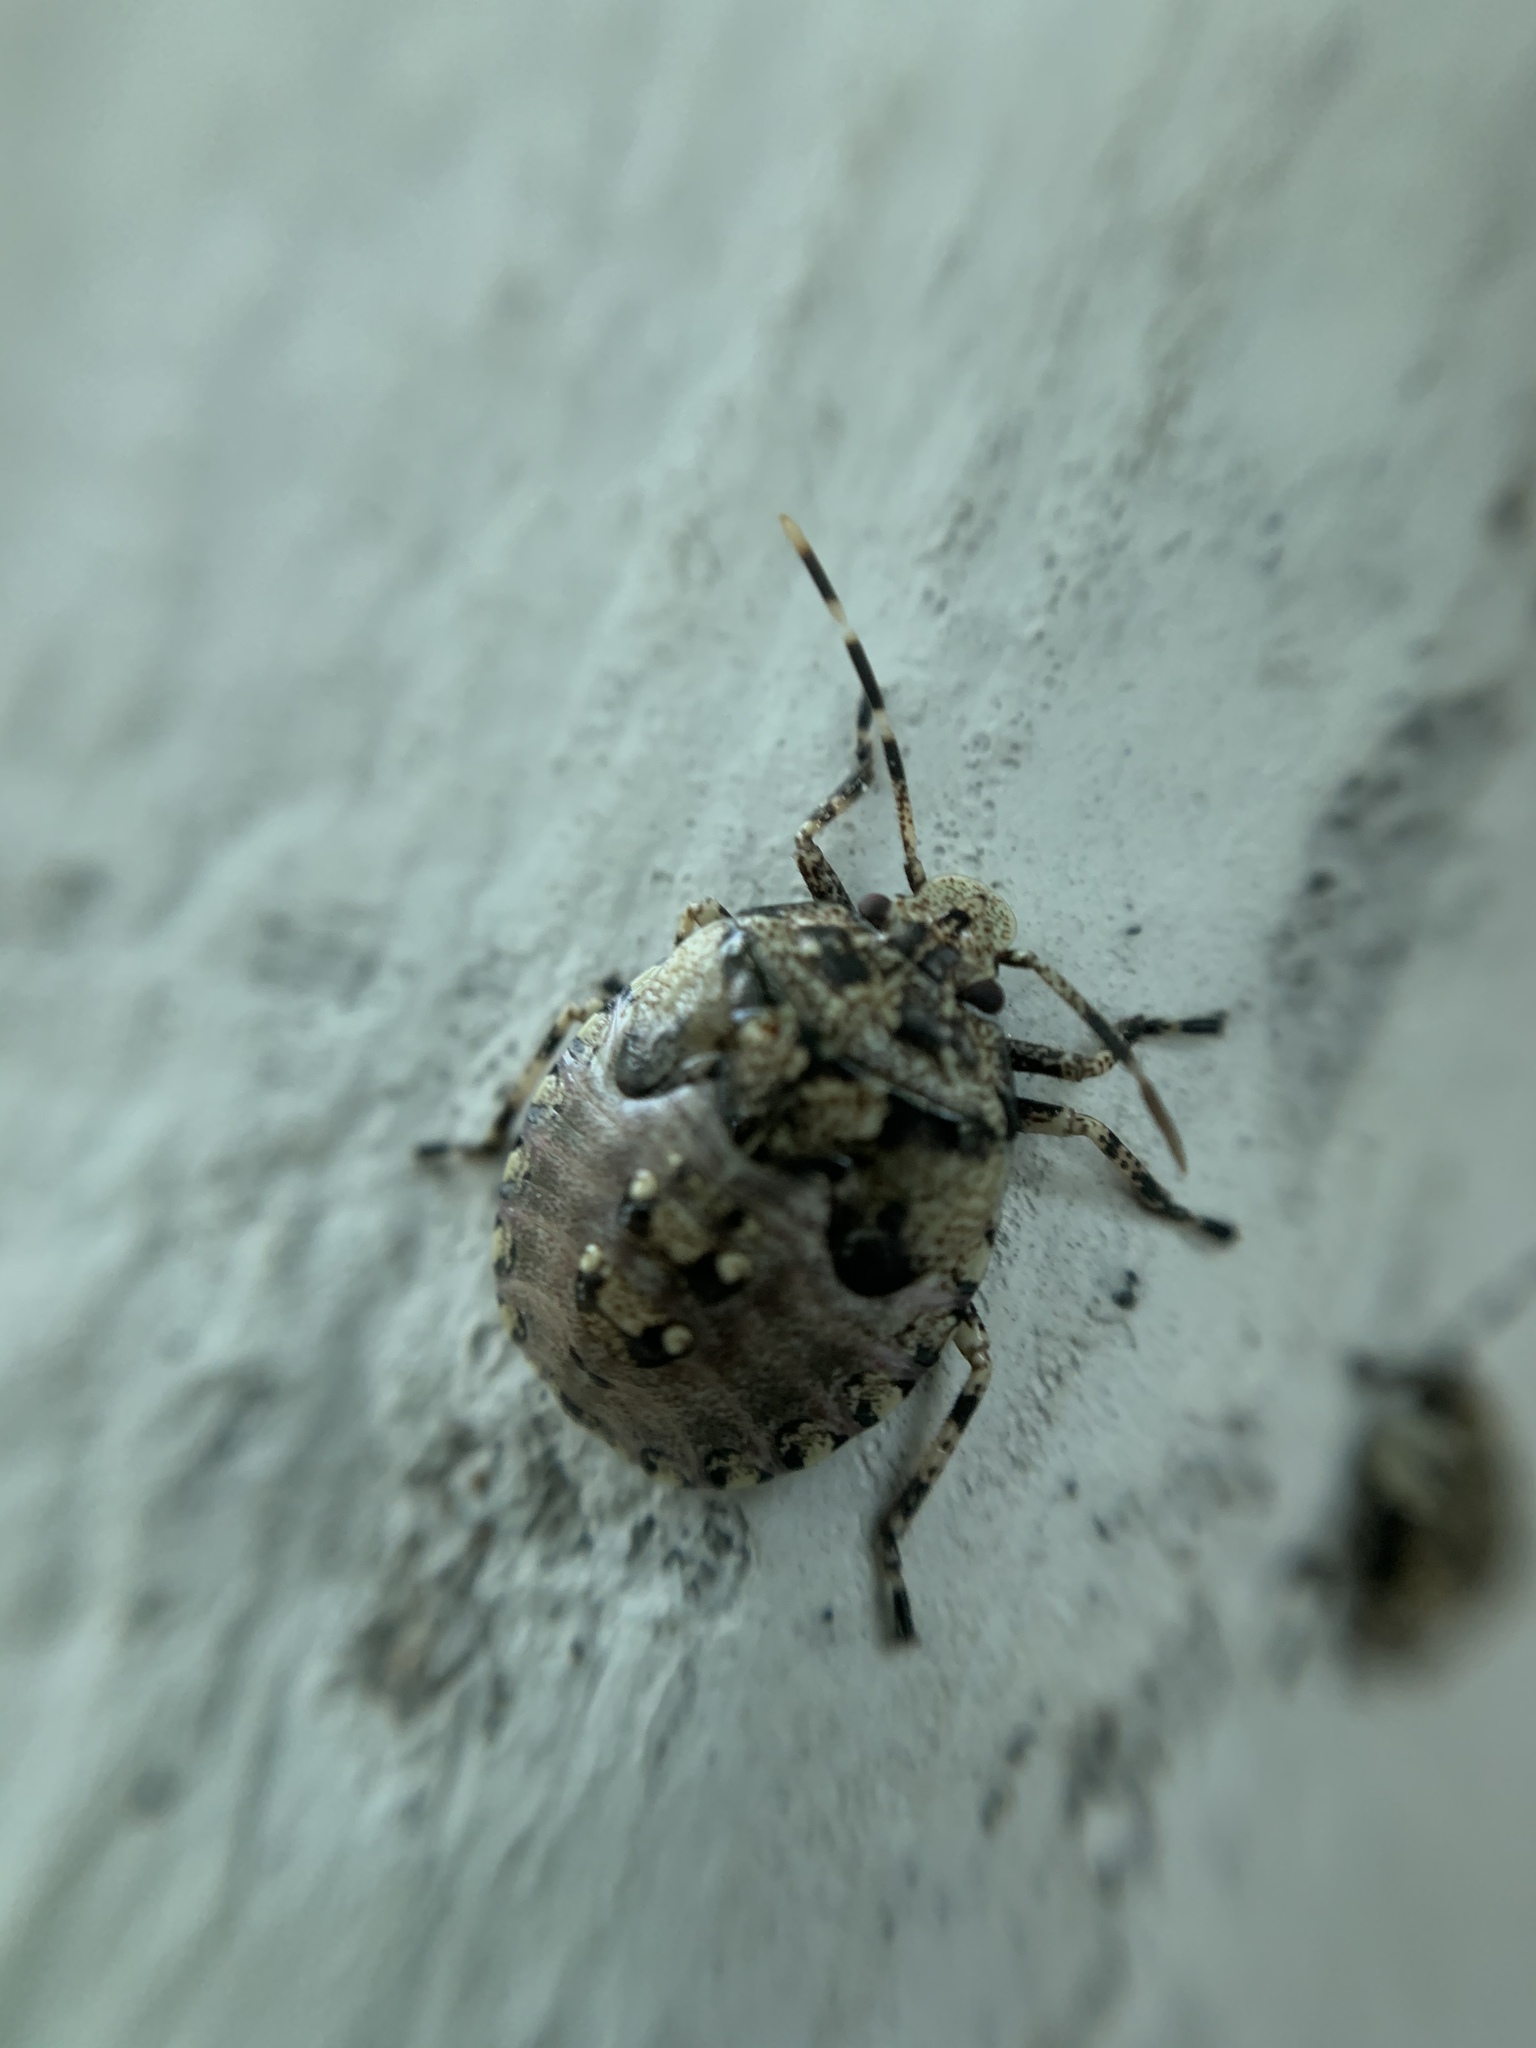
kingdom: Animalia
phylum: Arthropoda
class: Insecta
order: Hemiptera
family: Pentatomidae
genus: Antiteuchus
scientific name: Antiteuchus mixtus
